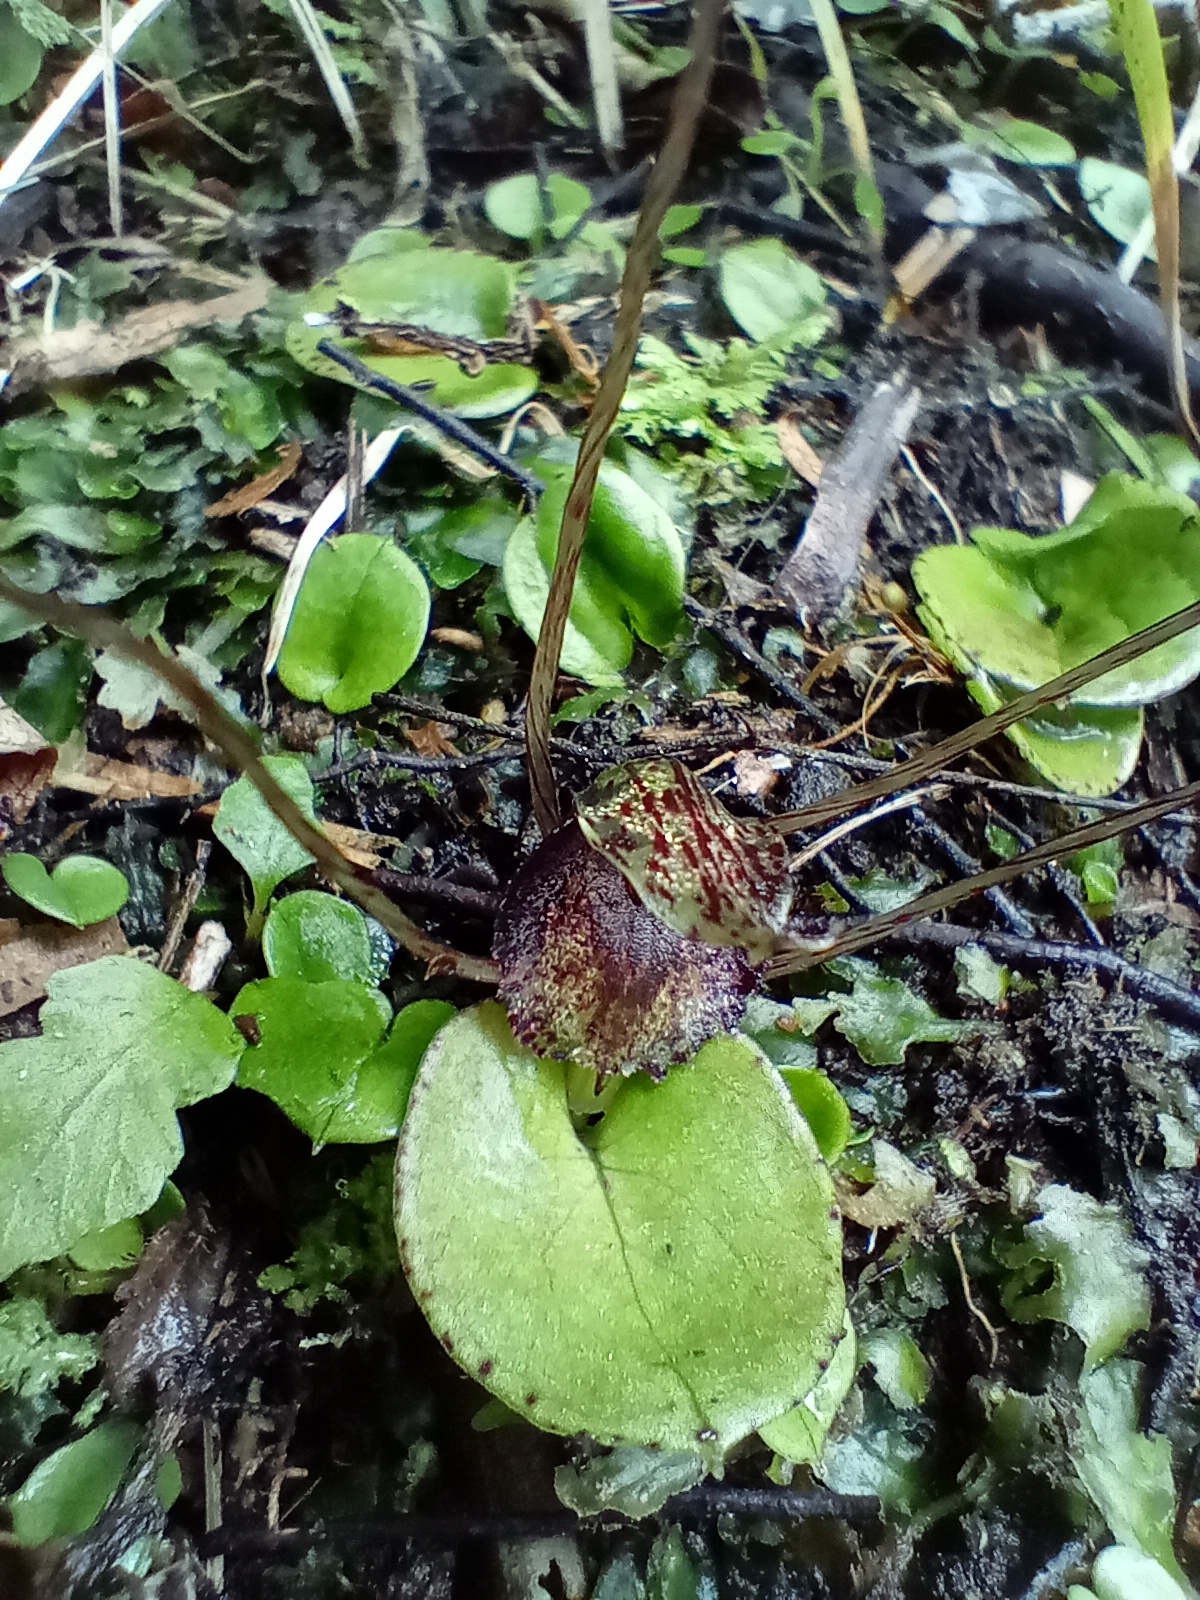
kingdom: Plantae
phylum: Tracheophyta
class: Liliopsida
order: Asparagales
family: Orchidaceae
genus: Corybas
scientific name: Corybas iridescens
